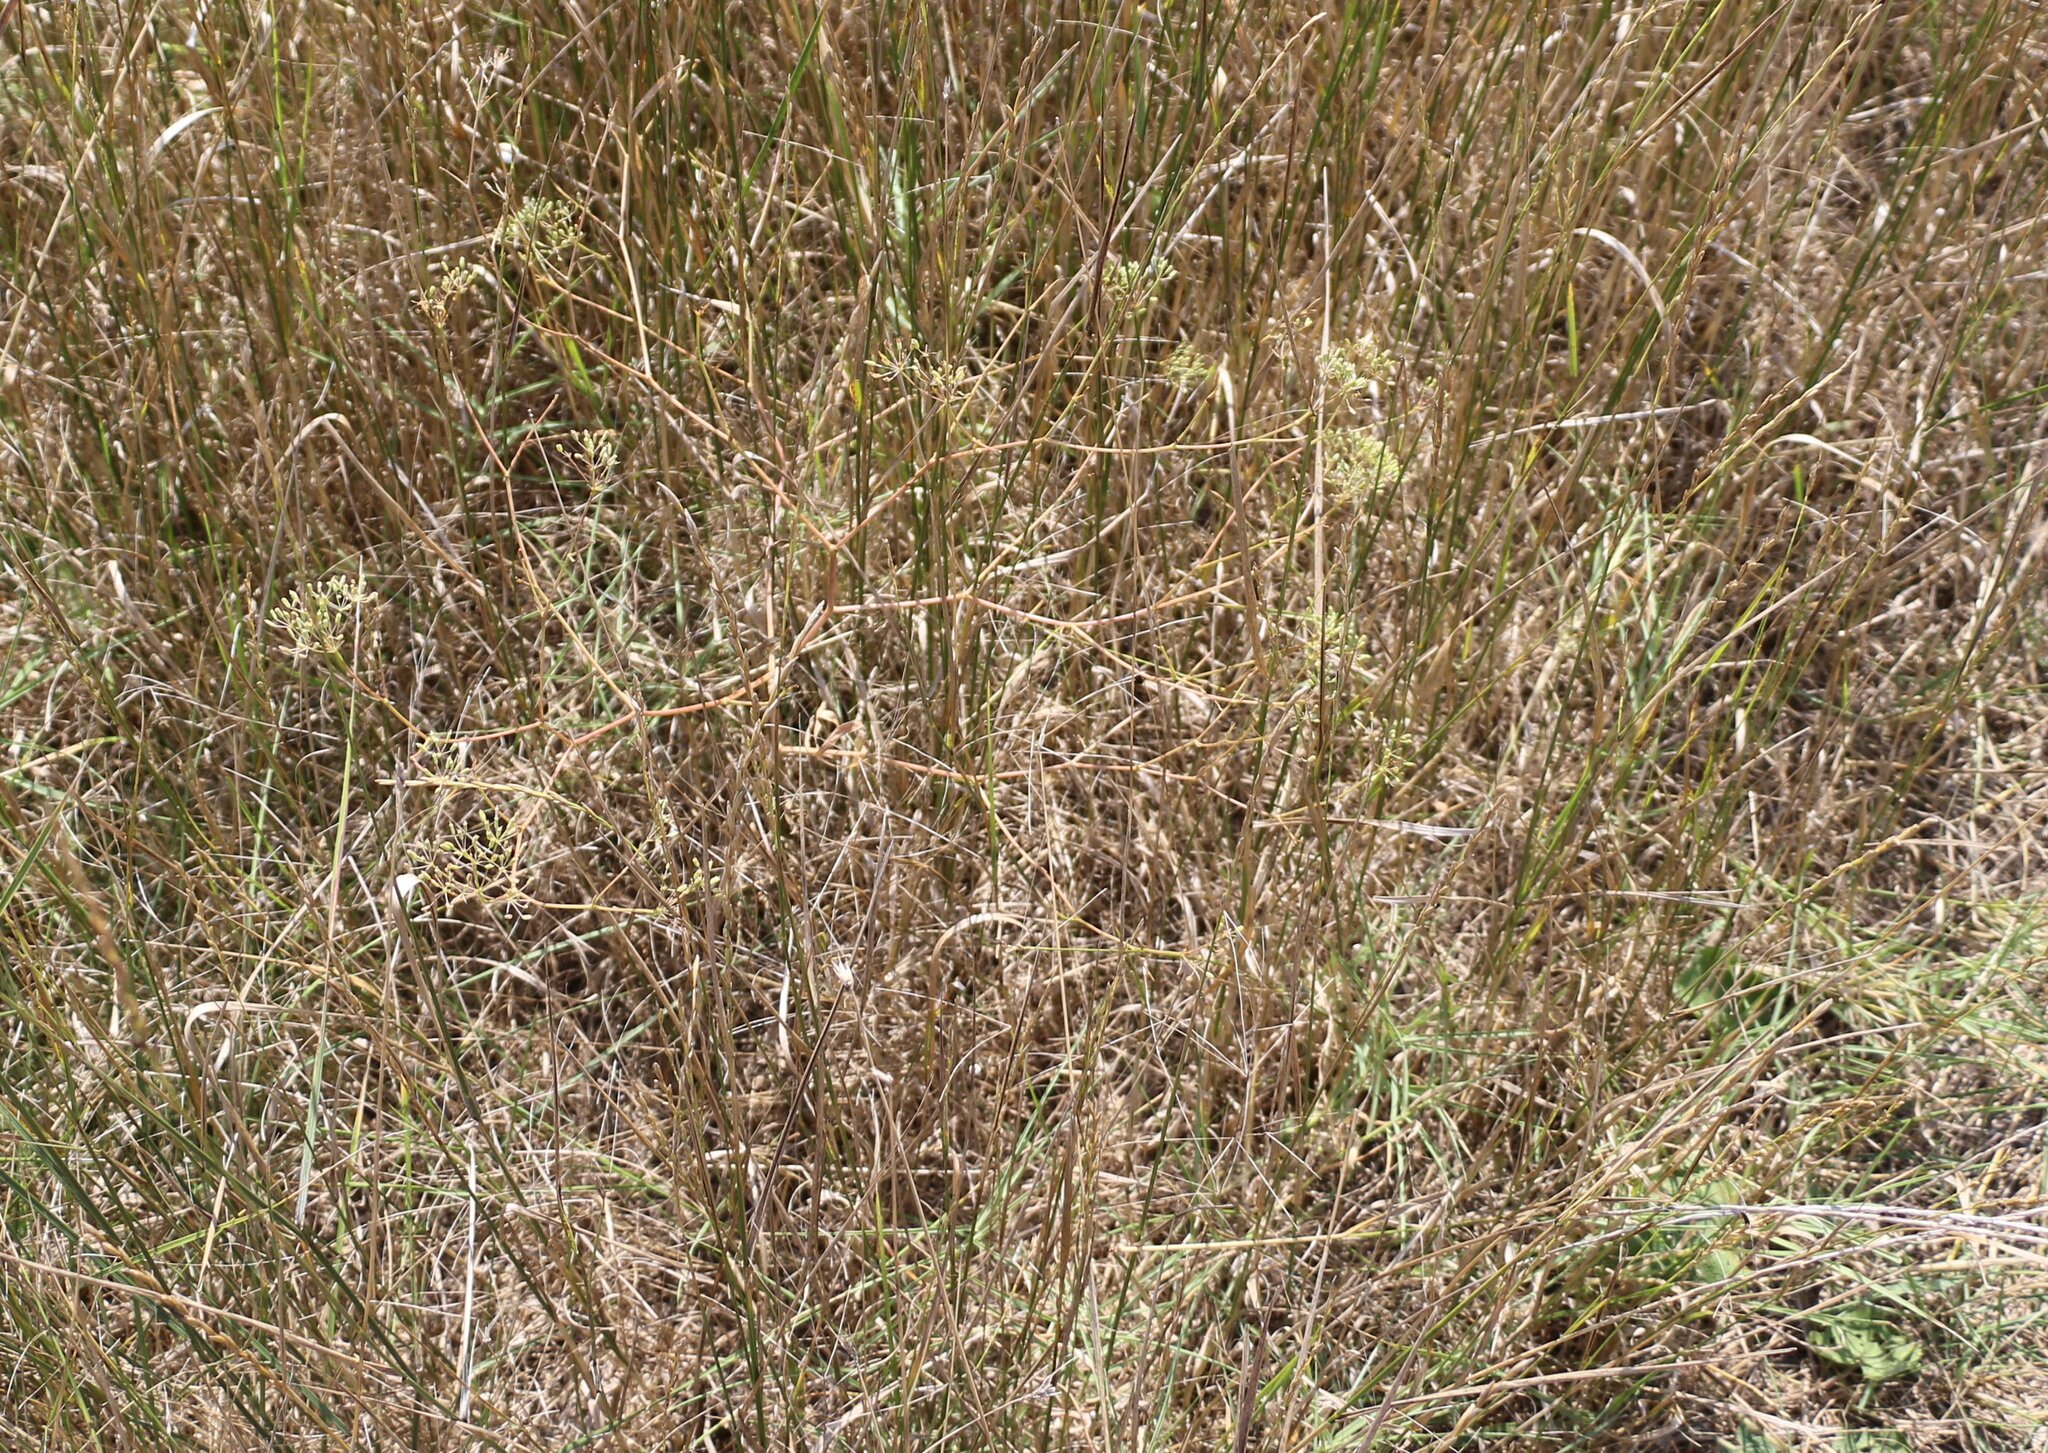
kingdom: Plantae
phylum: Tracheophyta
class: Magnoliopsida
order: Apiales
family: Apiaceae
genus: Falcaria
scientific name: Falcaria vulgaris
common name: Longleaf
